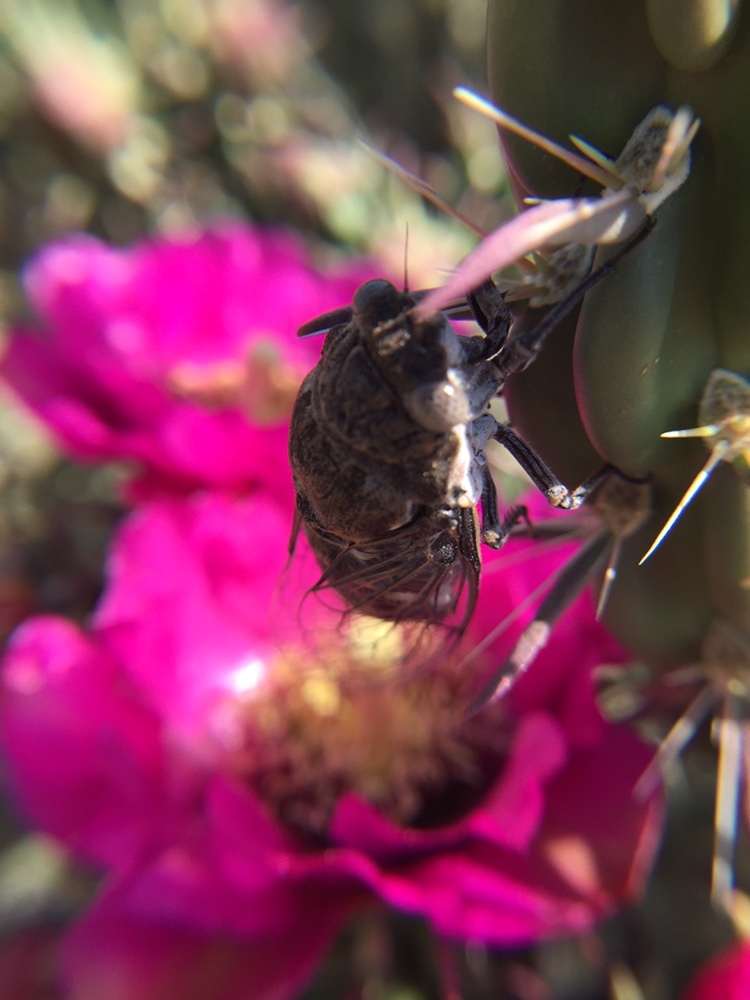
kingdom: Animalia
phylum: Arthropoda
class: Insecta
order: Hemiptera
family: Cicadidae
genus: Cacama
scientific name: Cacama valvata
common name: Cactus dodger
